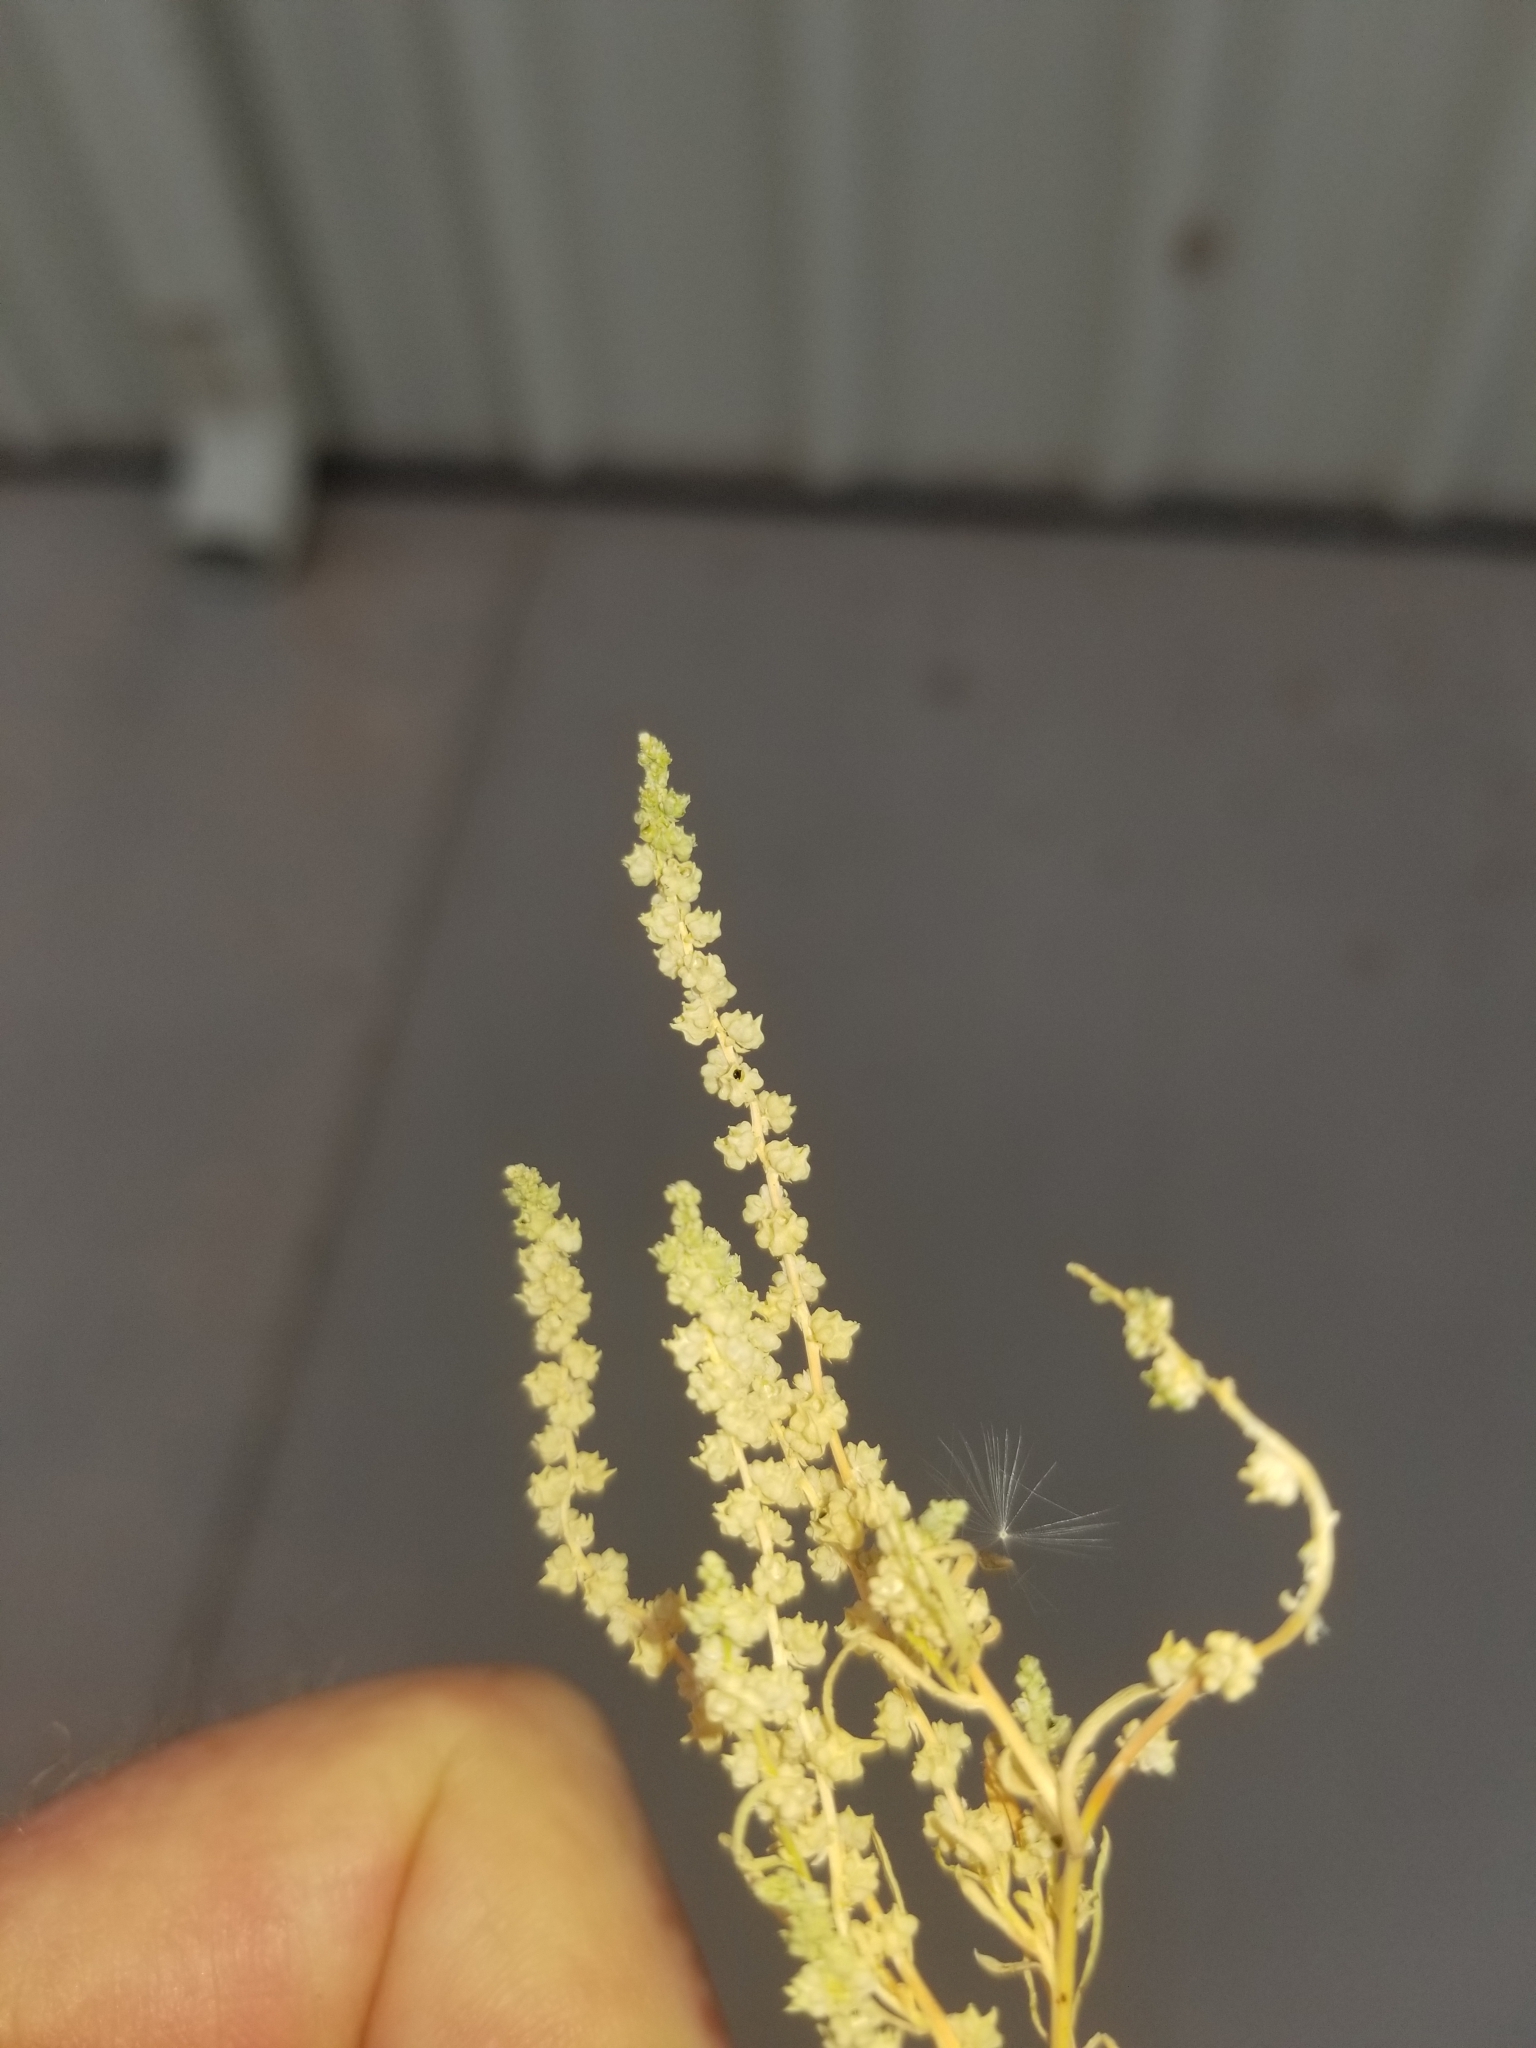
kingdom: Plantae
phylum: Tracheophyta
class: Magnoliopsida
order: Brassicales
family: Resedaceae
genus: Oligomeris
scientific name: Oligomeris linifolia
